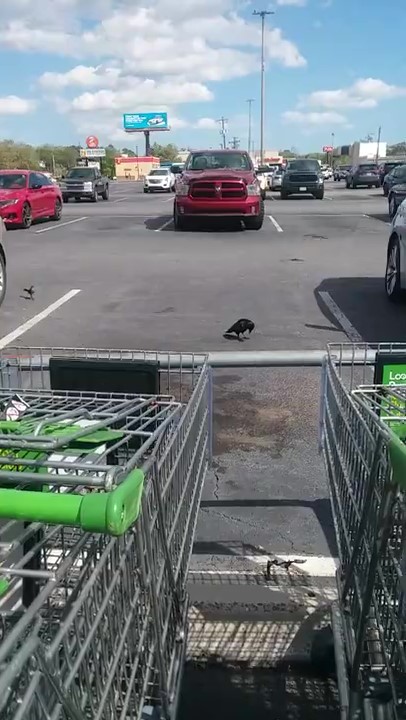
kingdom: Animalia
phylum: Chordata
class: Aves
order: Passeriformes
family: Corvidae
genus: Corvus
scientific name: Corvus ossifragus
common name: Fish crow
